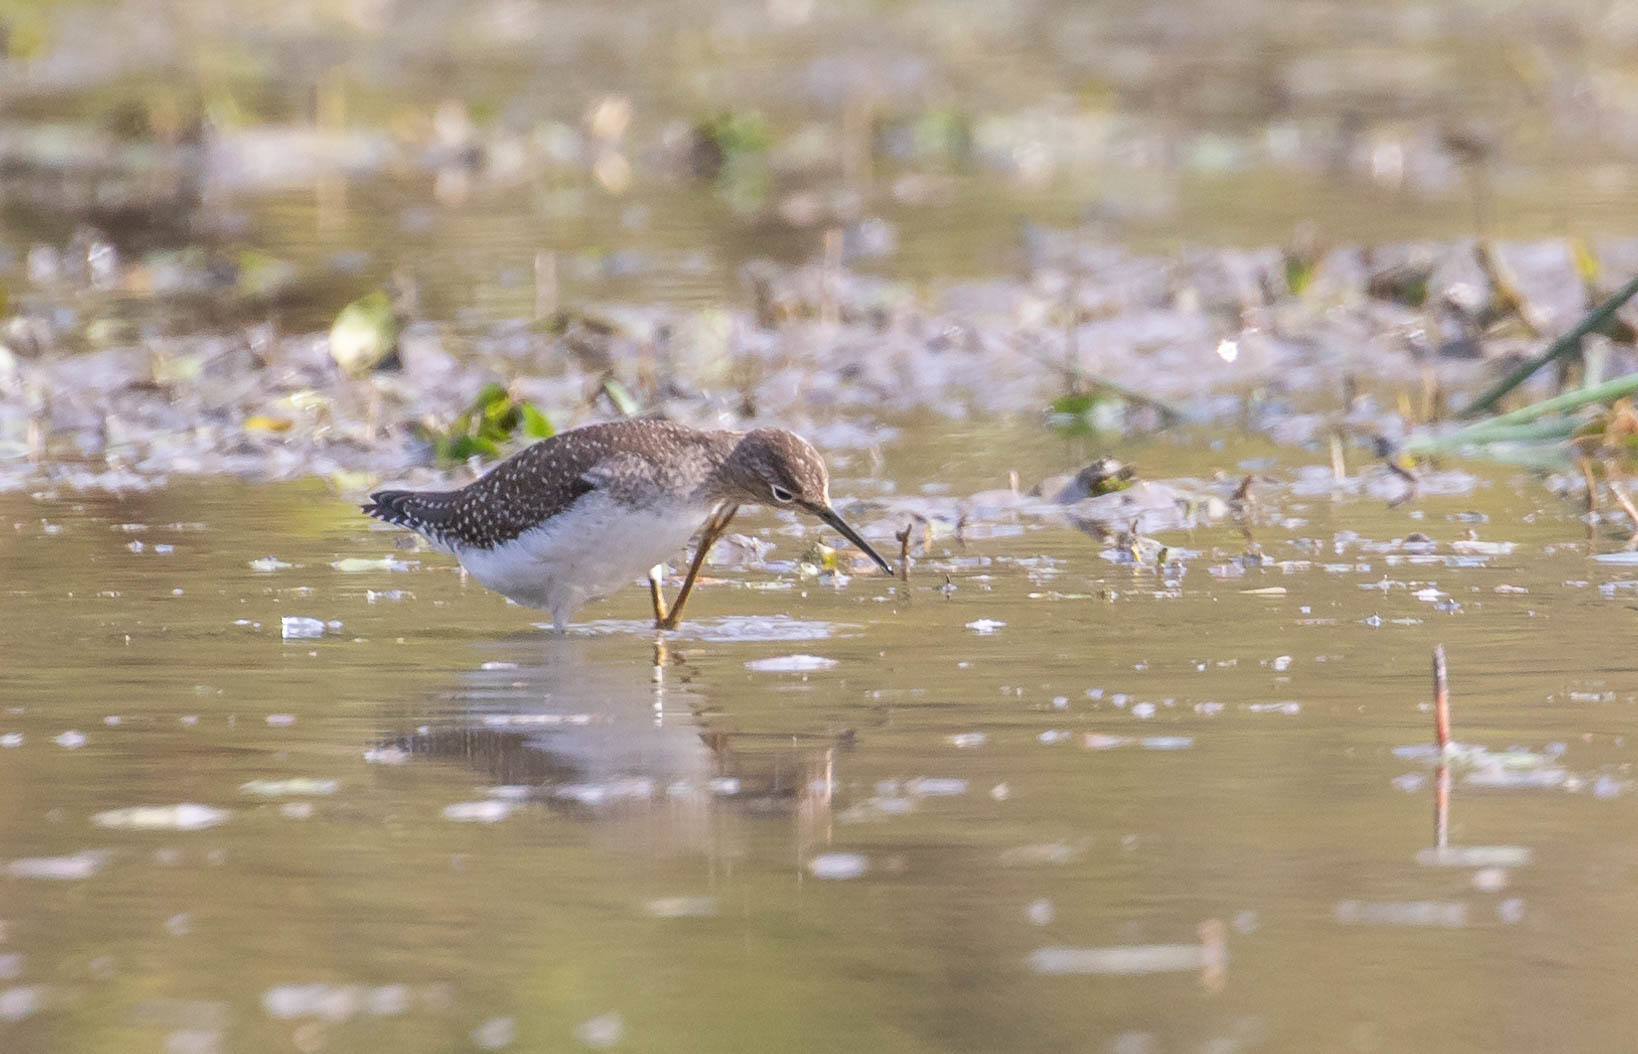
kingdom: Animalia
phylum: Chordata
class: Aves
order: Charadriiformes
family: Scolopacidae
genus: Tringa
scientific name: Tringa solitaria
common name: Solitary sandpiper
